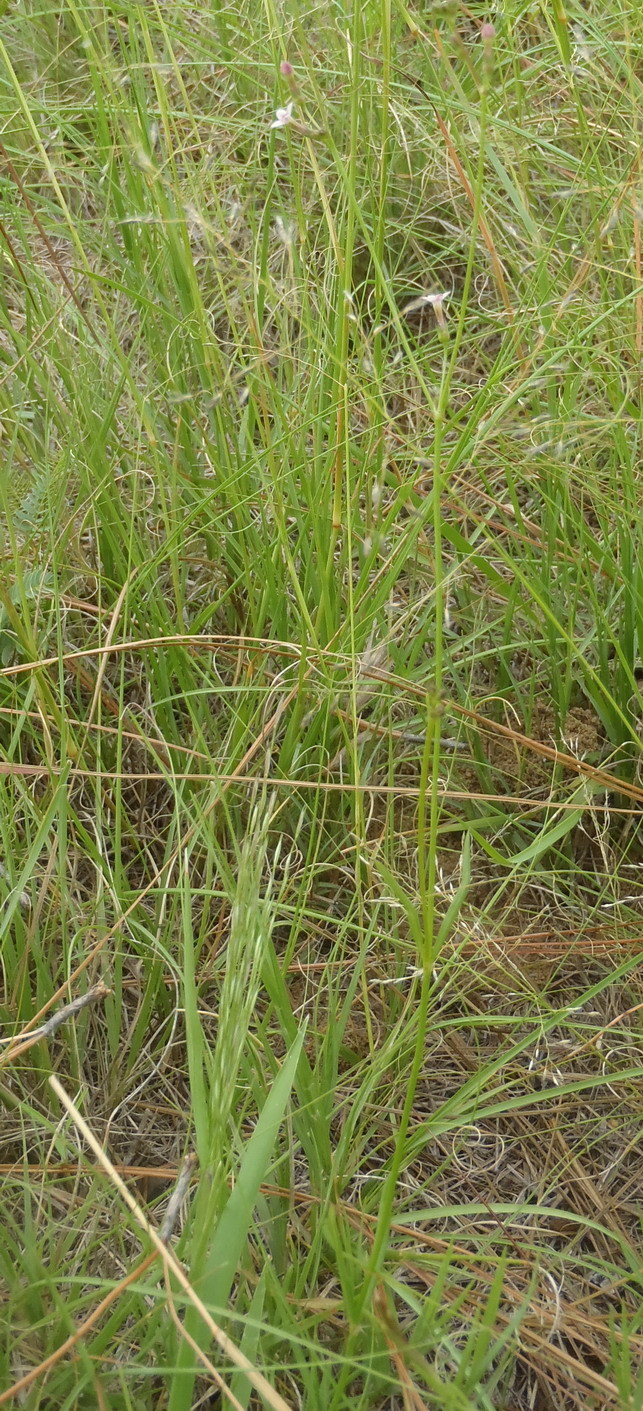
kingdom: Plantae
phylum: Tracheophyta
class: Magnoliopsida
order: Gentianales
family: Rubiaceae
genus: Cordylostigma
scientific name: Cordylostigma virgatum
